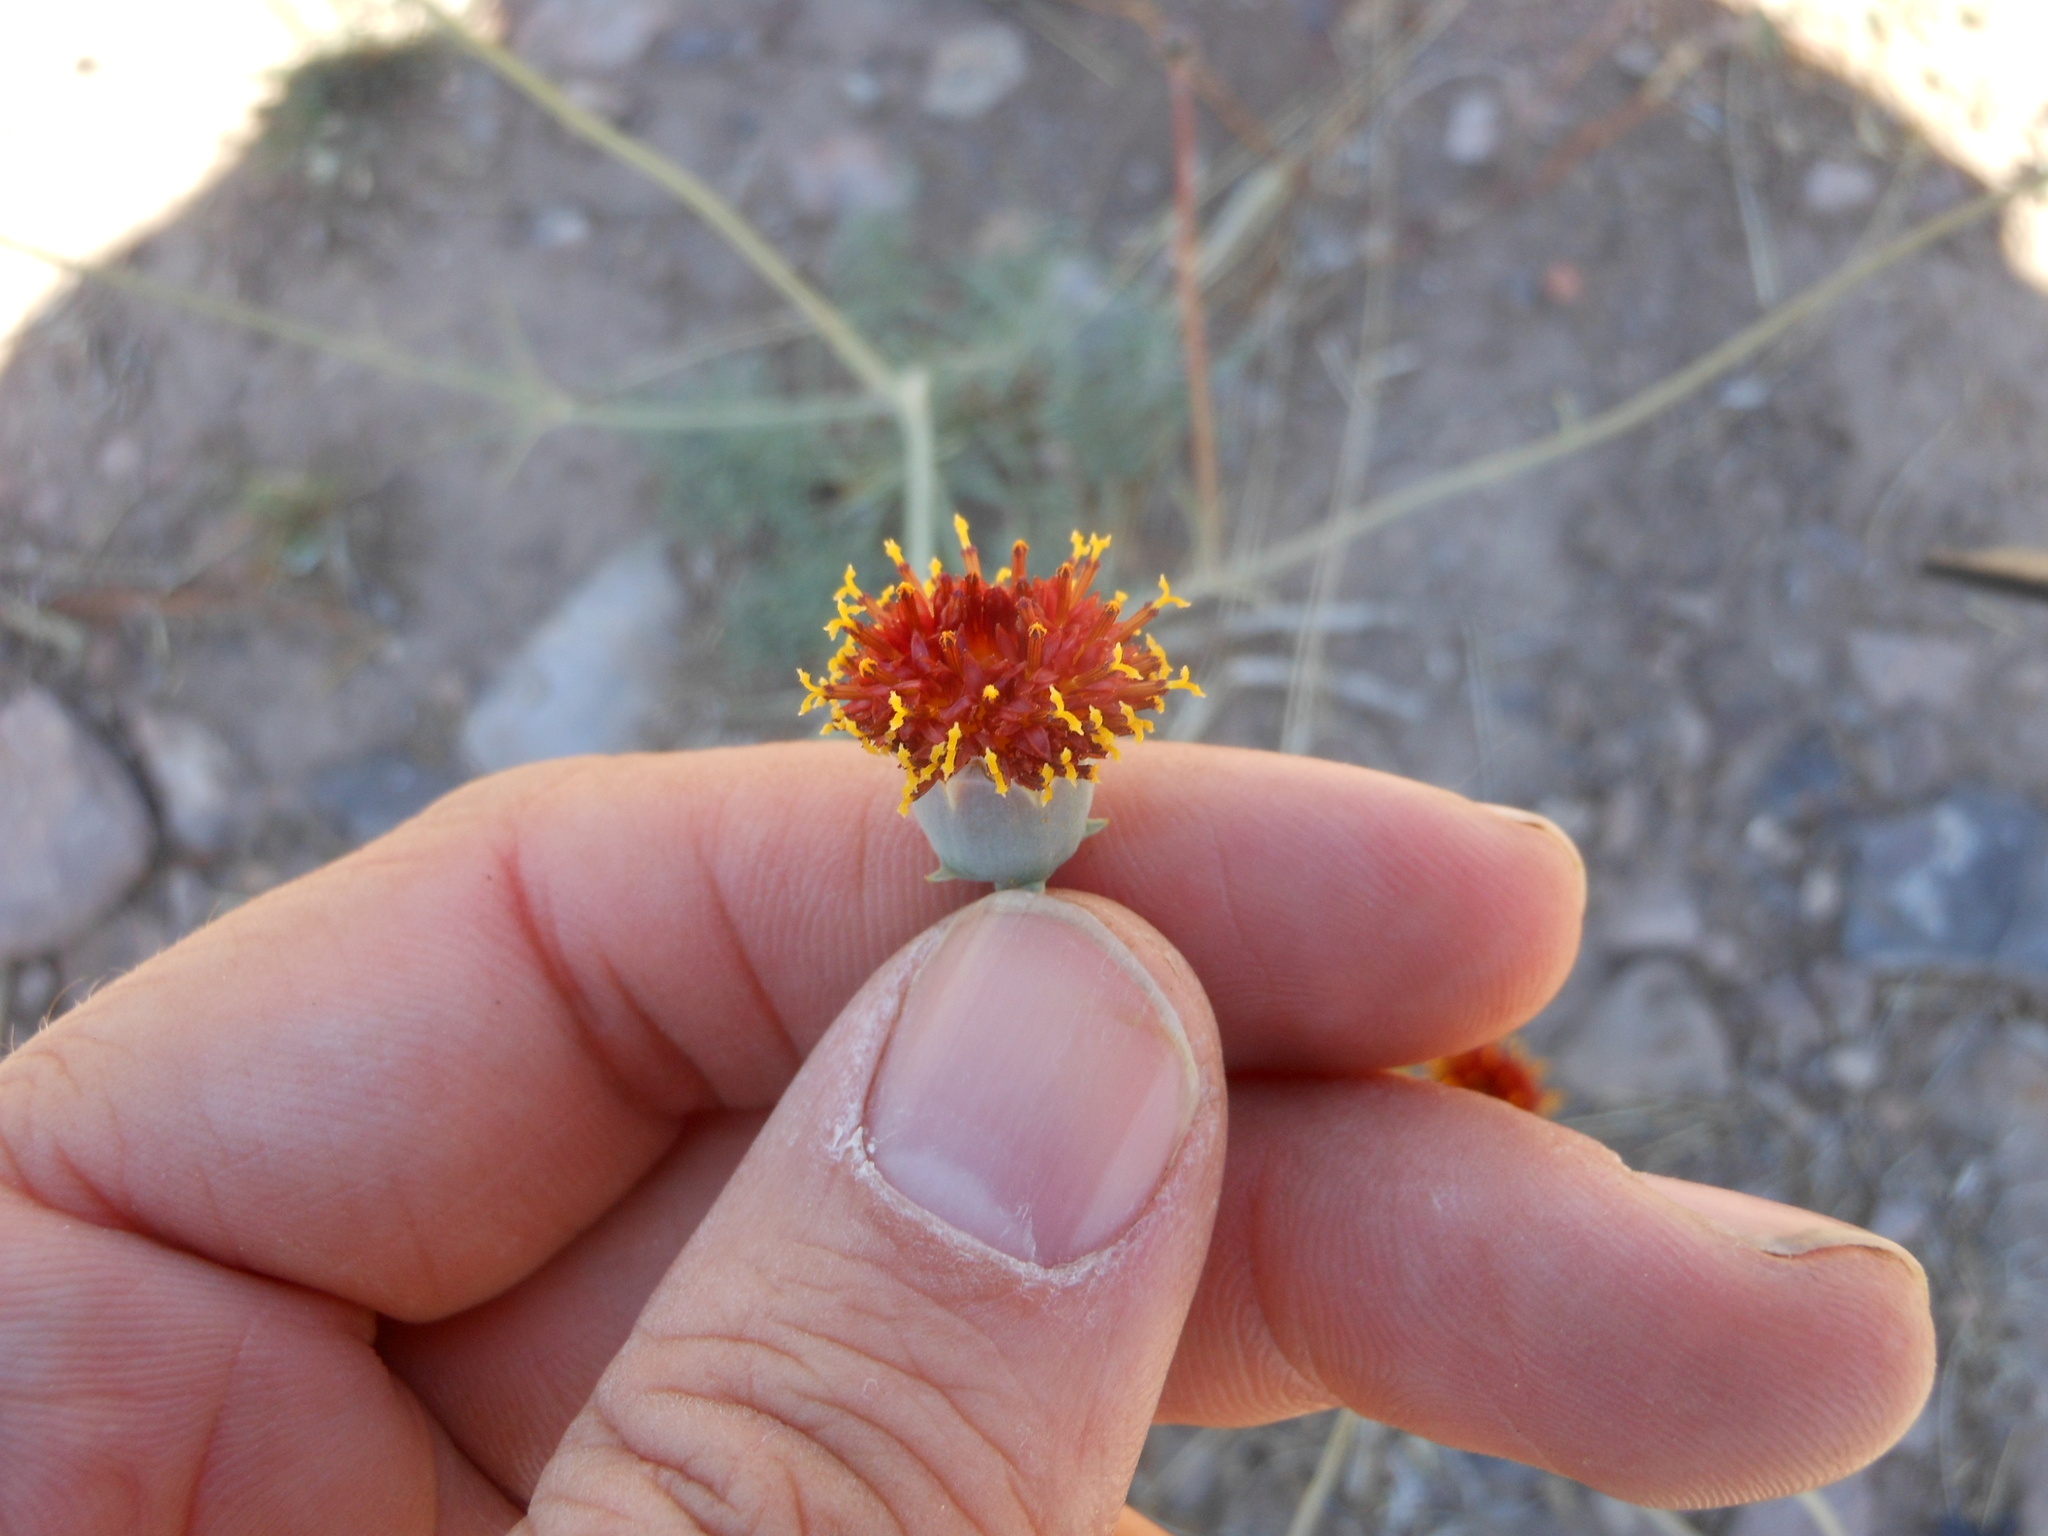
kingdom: Plantae
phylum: Tracheophyta
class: Magnoliopsida
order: Asterales
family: Asteraceae
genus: Thelesperma
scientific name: Thelesperma megapotamicum
